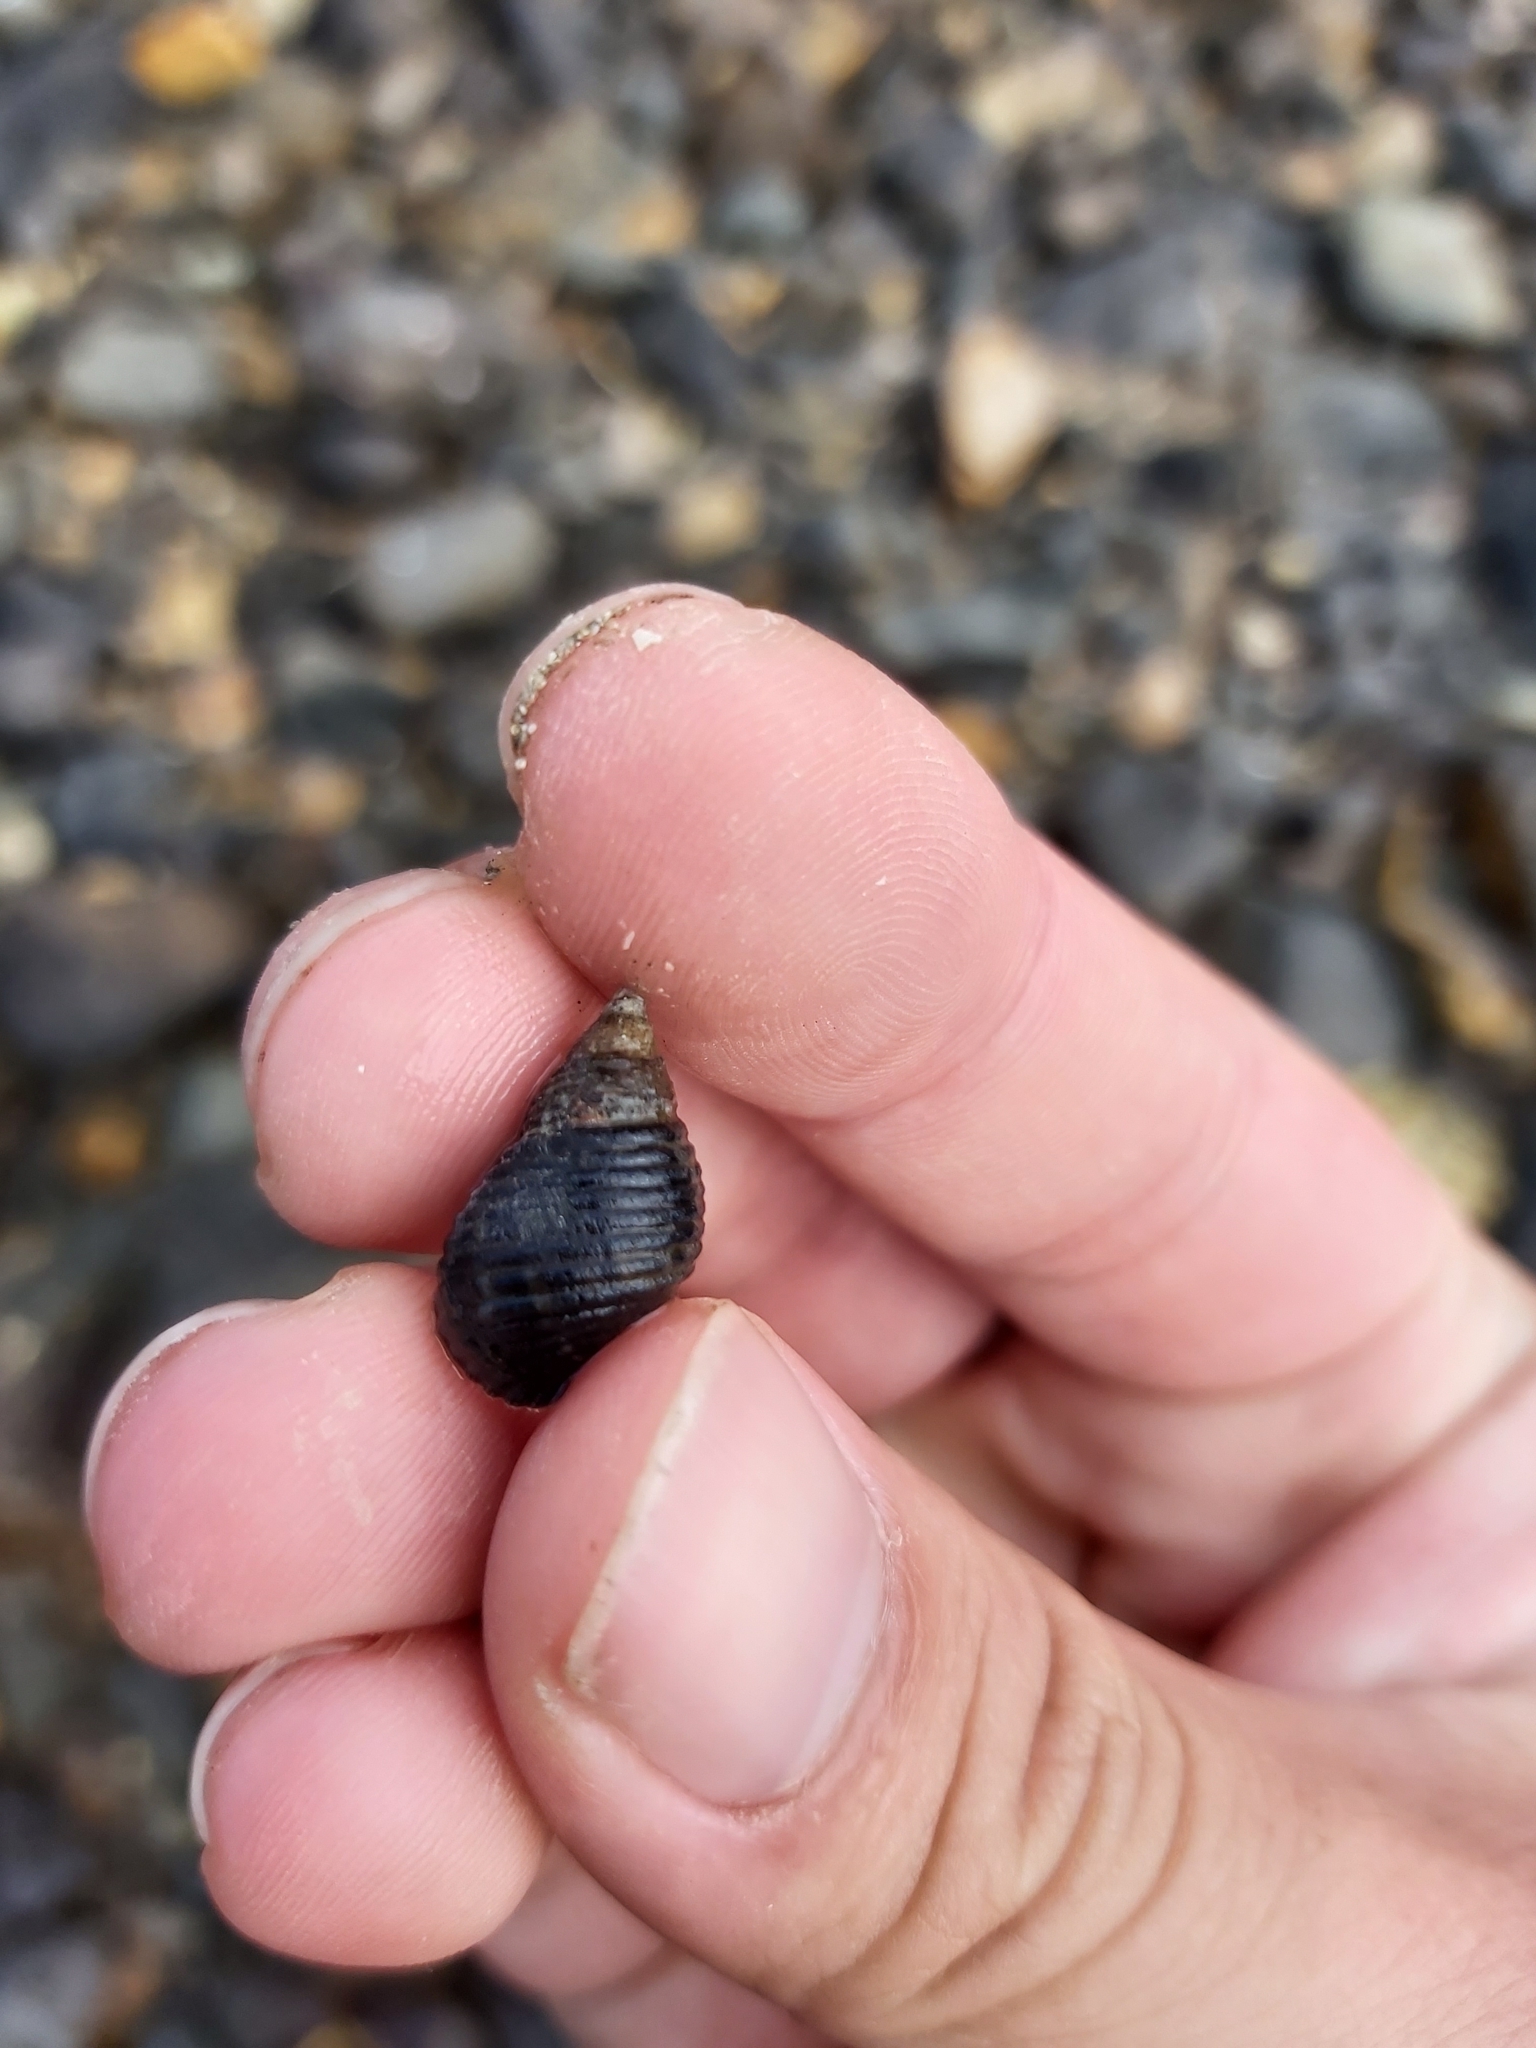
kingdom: Animalia
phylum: Mollusca
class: Gastropoda
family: Planaxidae
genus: Planaxis
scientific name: Planaxis sulcatus
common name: Furrowed planaxis
